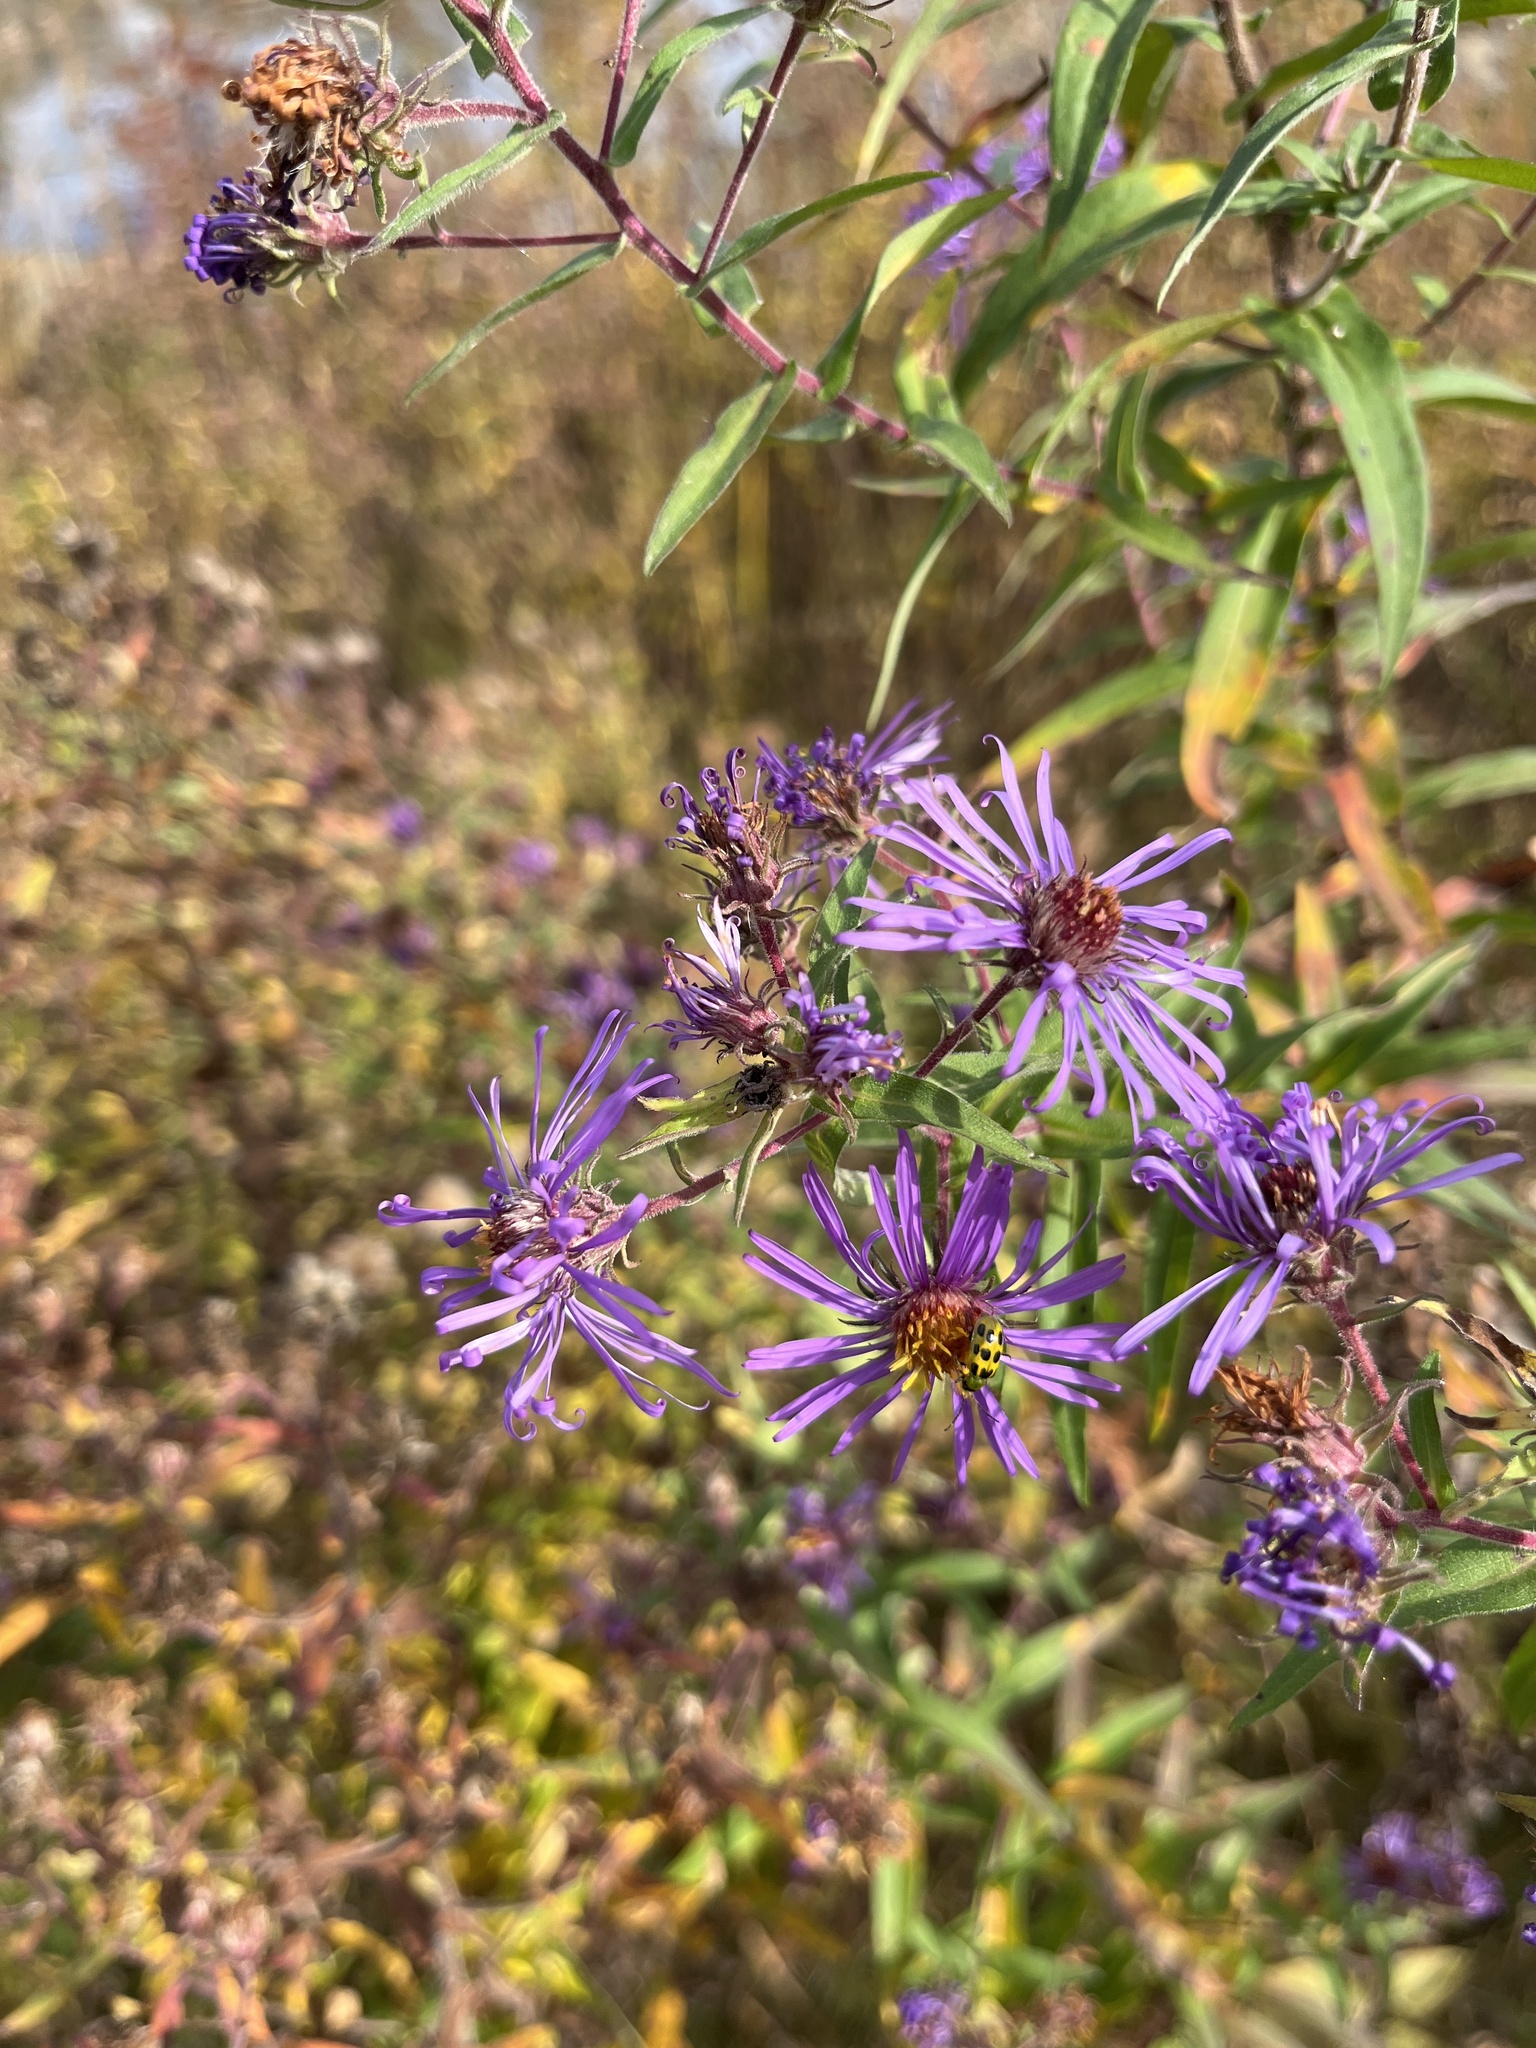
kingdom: Plantae
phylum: Tracheophyta
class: Magnoliopsida
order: Asterales
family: Asteraceae
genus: Symphyotrichum
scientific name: Symphyotrichum novae-angliae
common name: Michaelmas daisy
